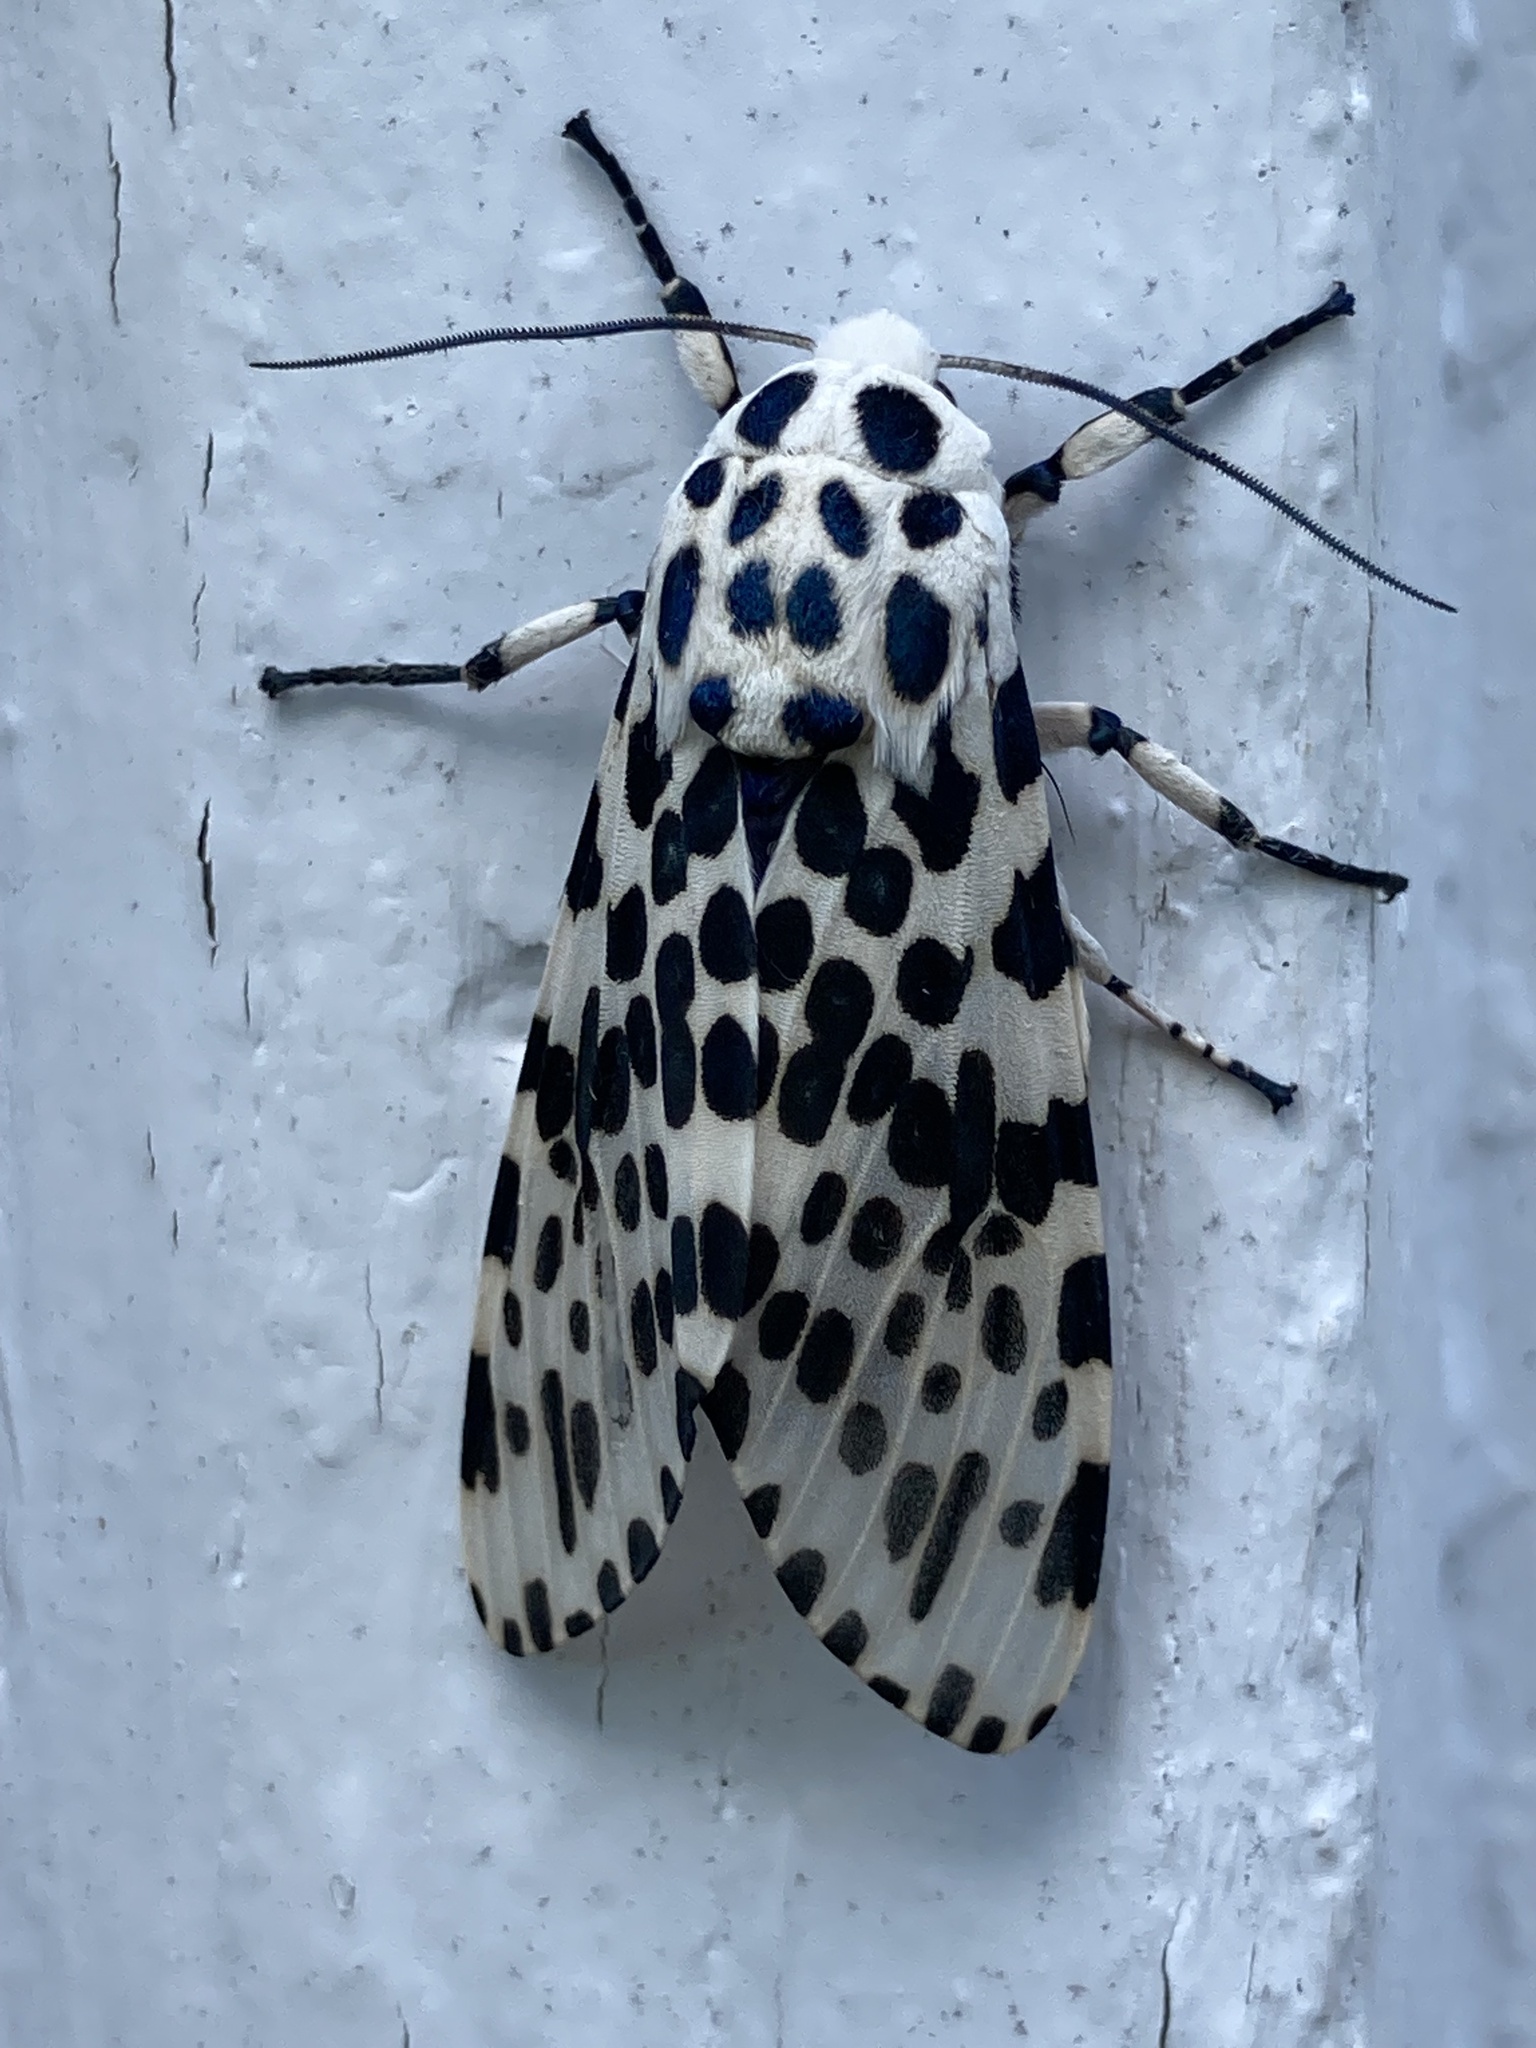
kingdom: Animalia
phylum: Arthropoda
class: Insecta
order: Lepidoptera
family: Erebidae
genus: Hypercompe
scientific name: Hypercompe scribonia
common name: Giant leopard moth
